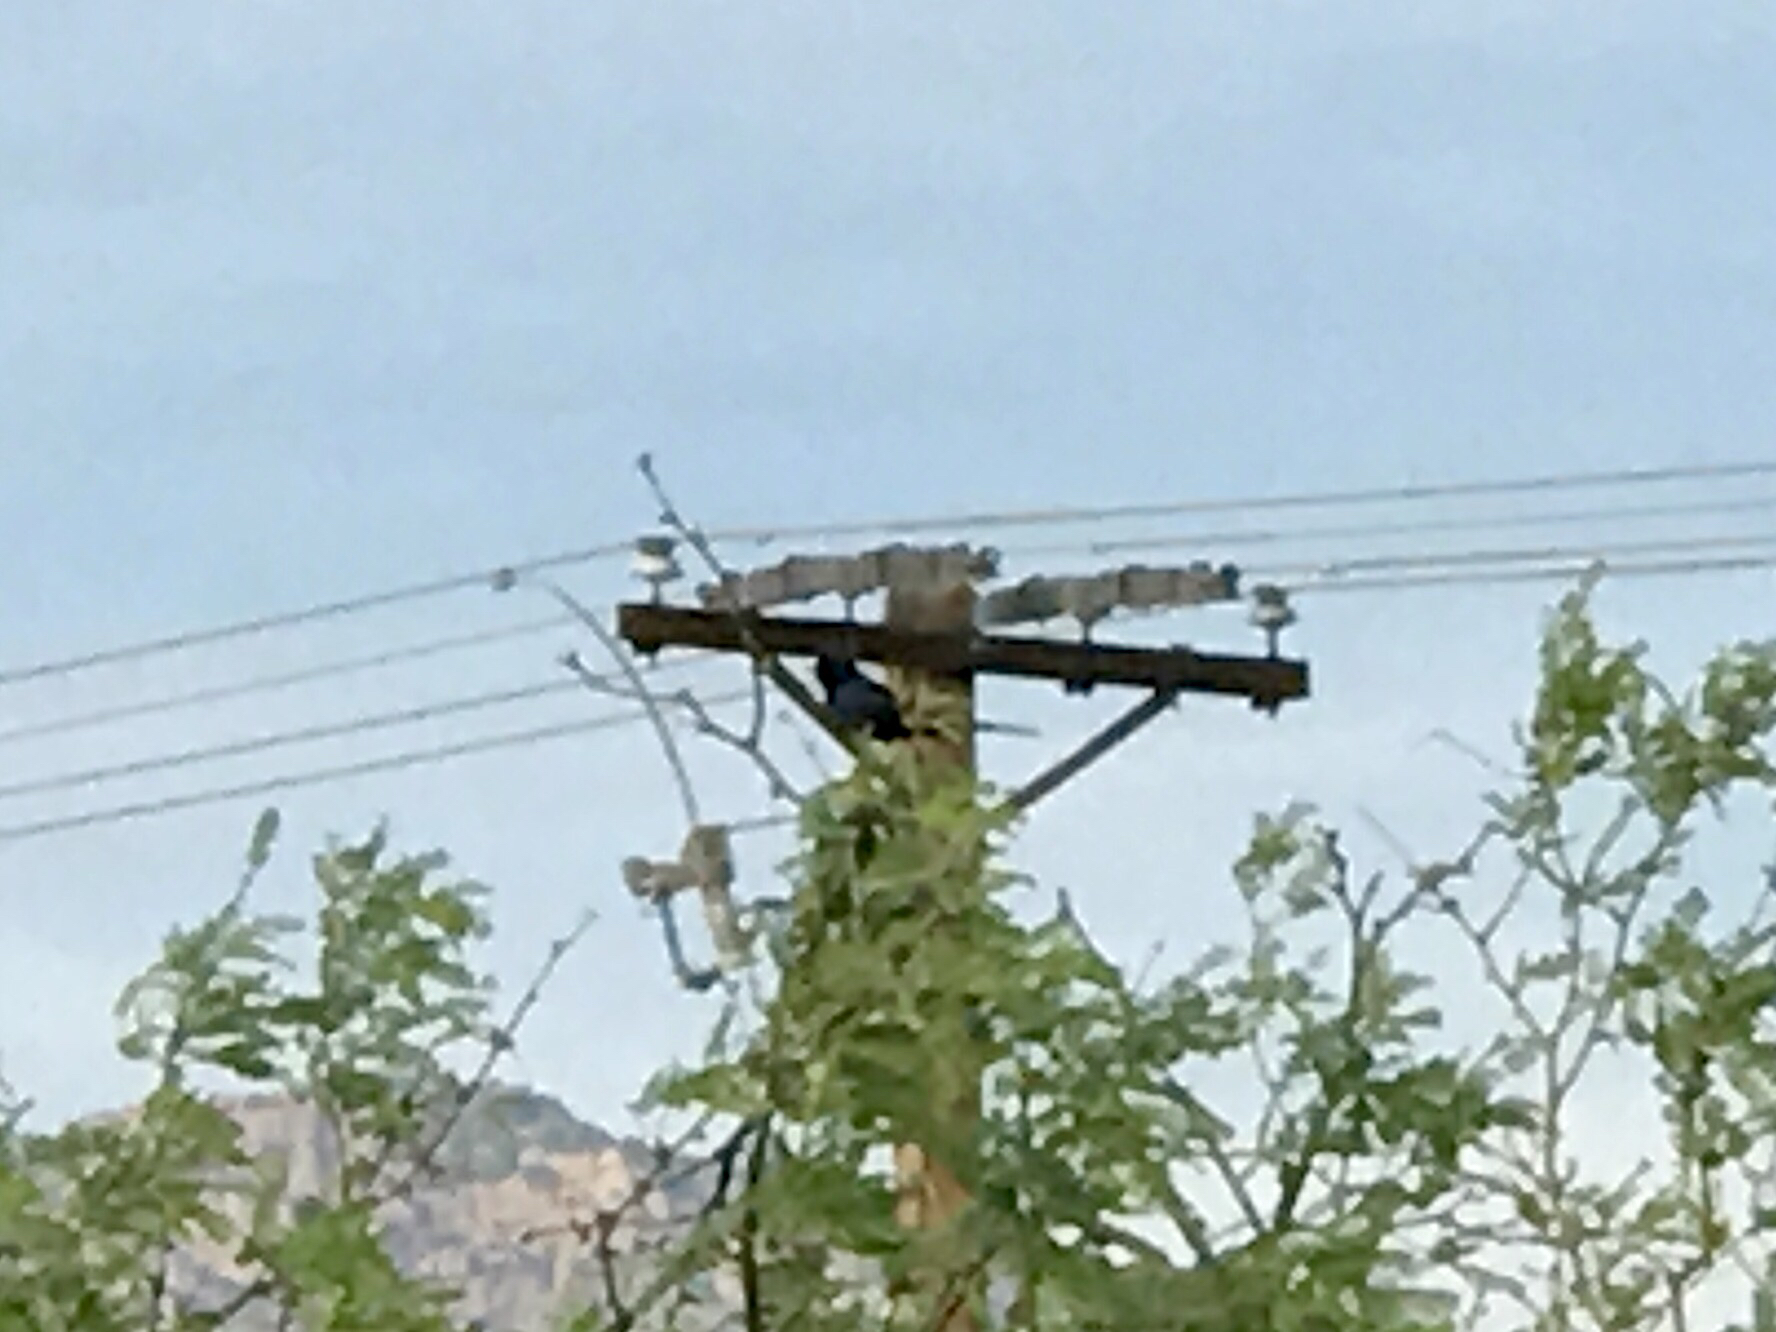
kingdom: Animalia
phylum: Chordata
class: Aves
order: Passeriformes
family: Ptilogonatidae
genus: Phainopepla
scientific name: Phainopepla nitens
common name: Phainopepla
